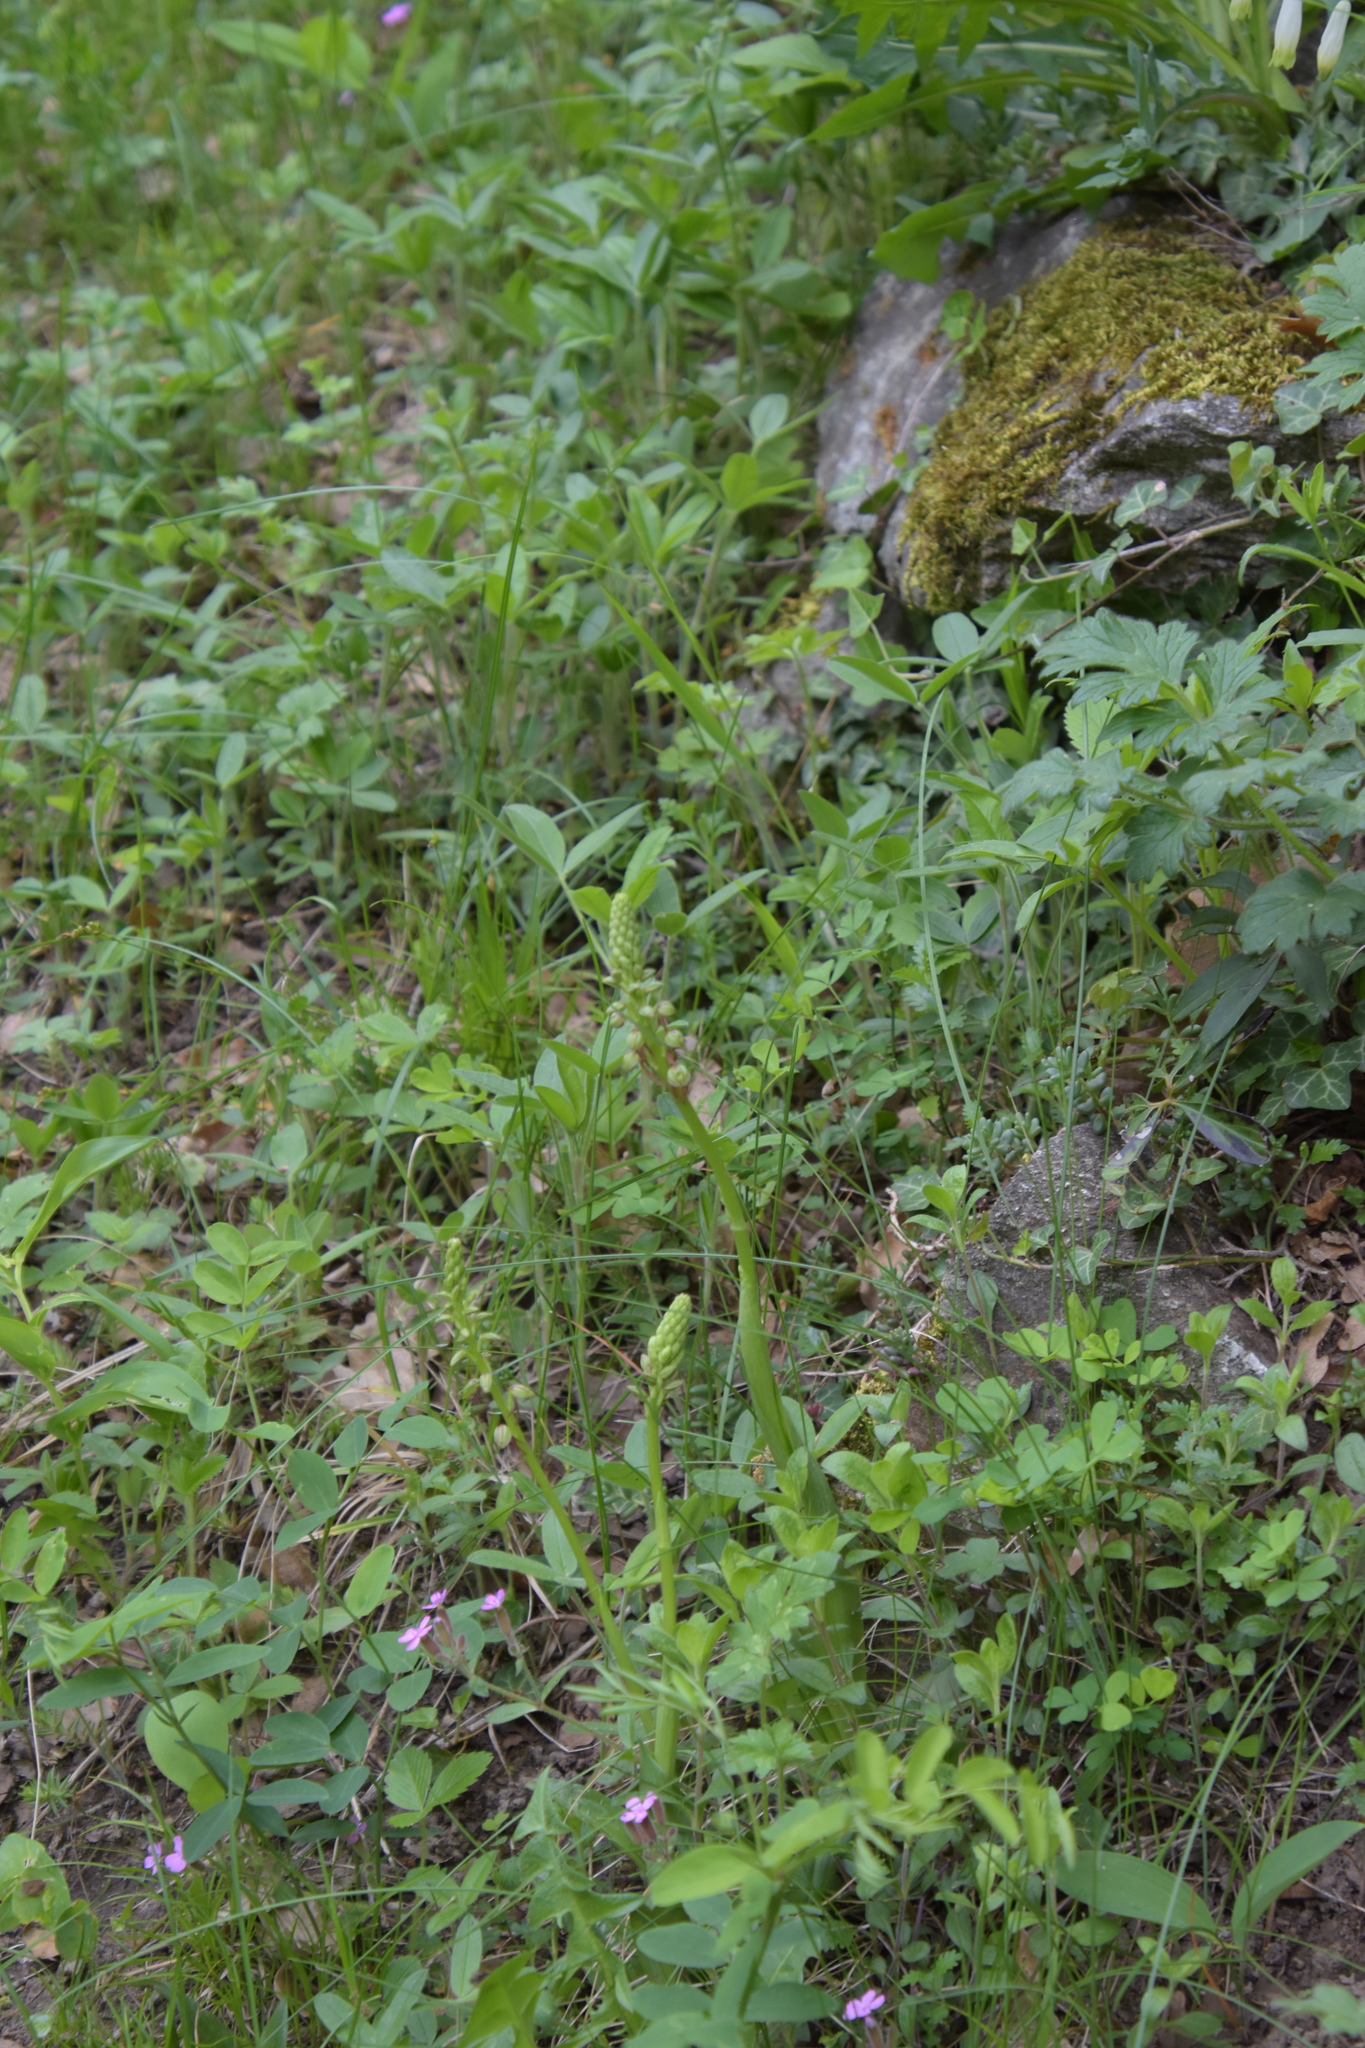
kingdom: Plantae
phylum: Tracheophyta
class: Liliopsida
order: Asparagales
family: Orchidaceae
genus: Orchis
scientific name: Orchis anthropophora
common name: Man orchid
